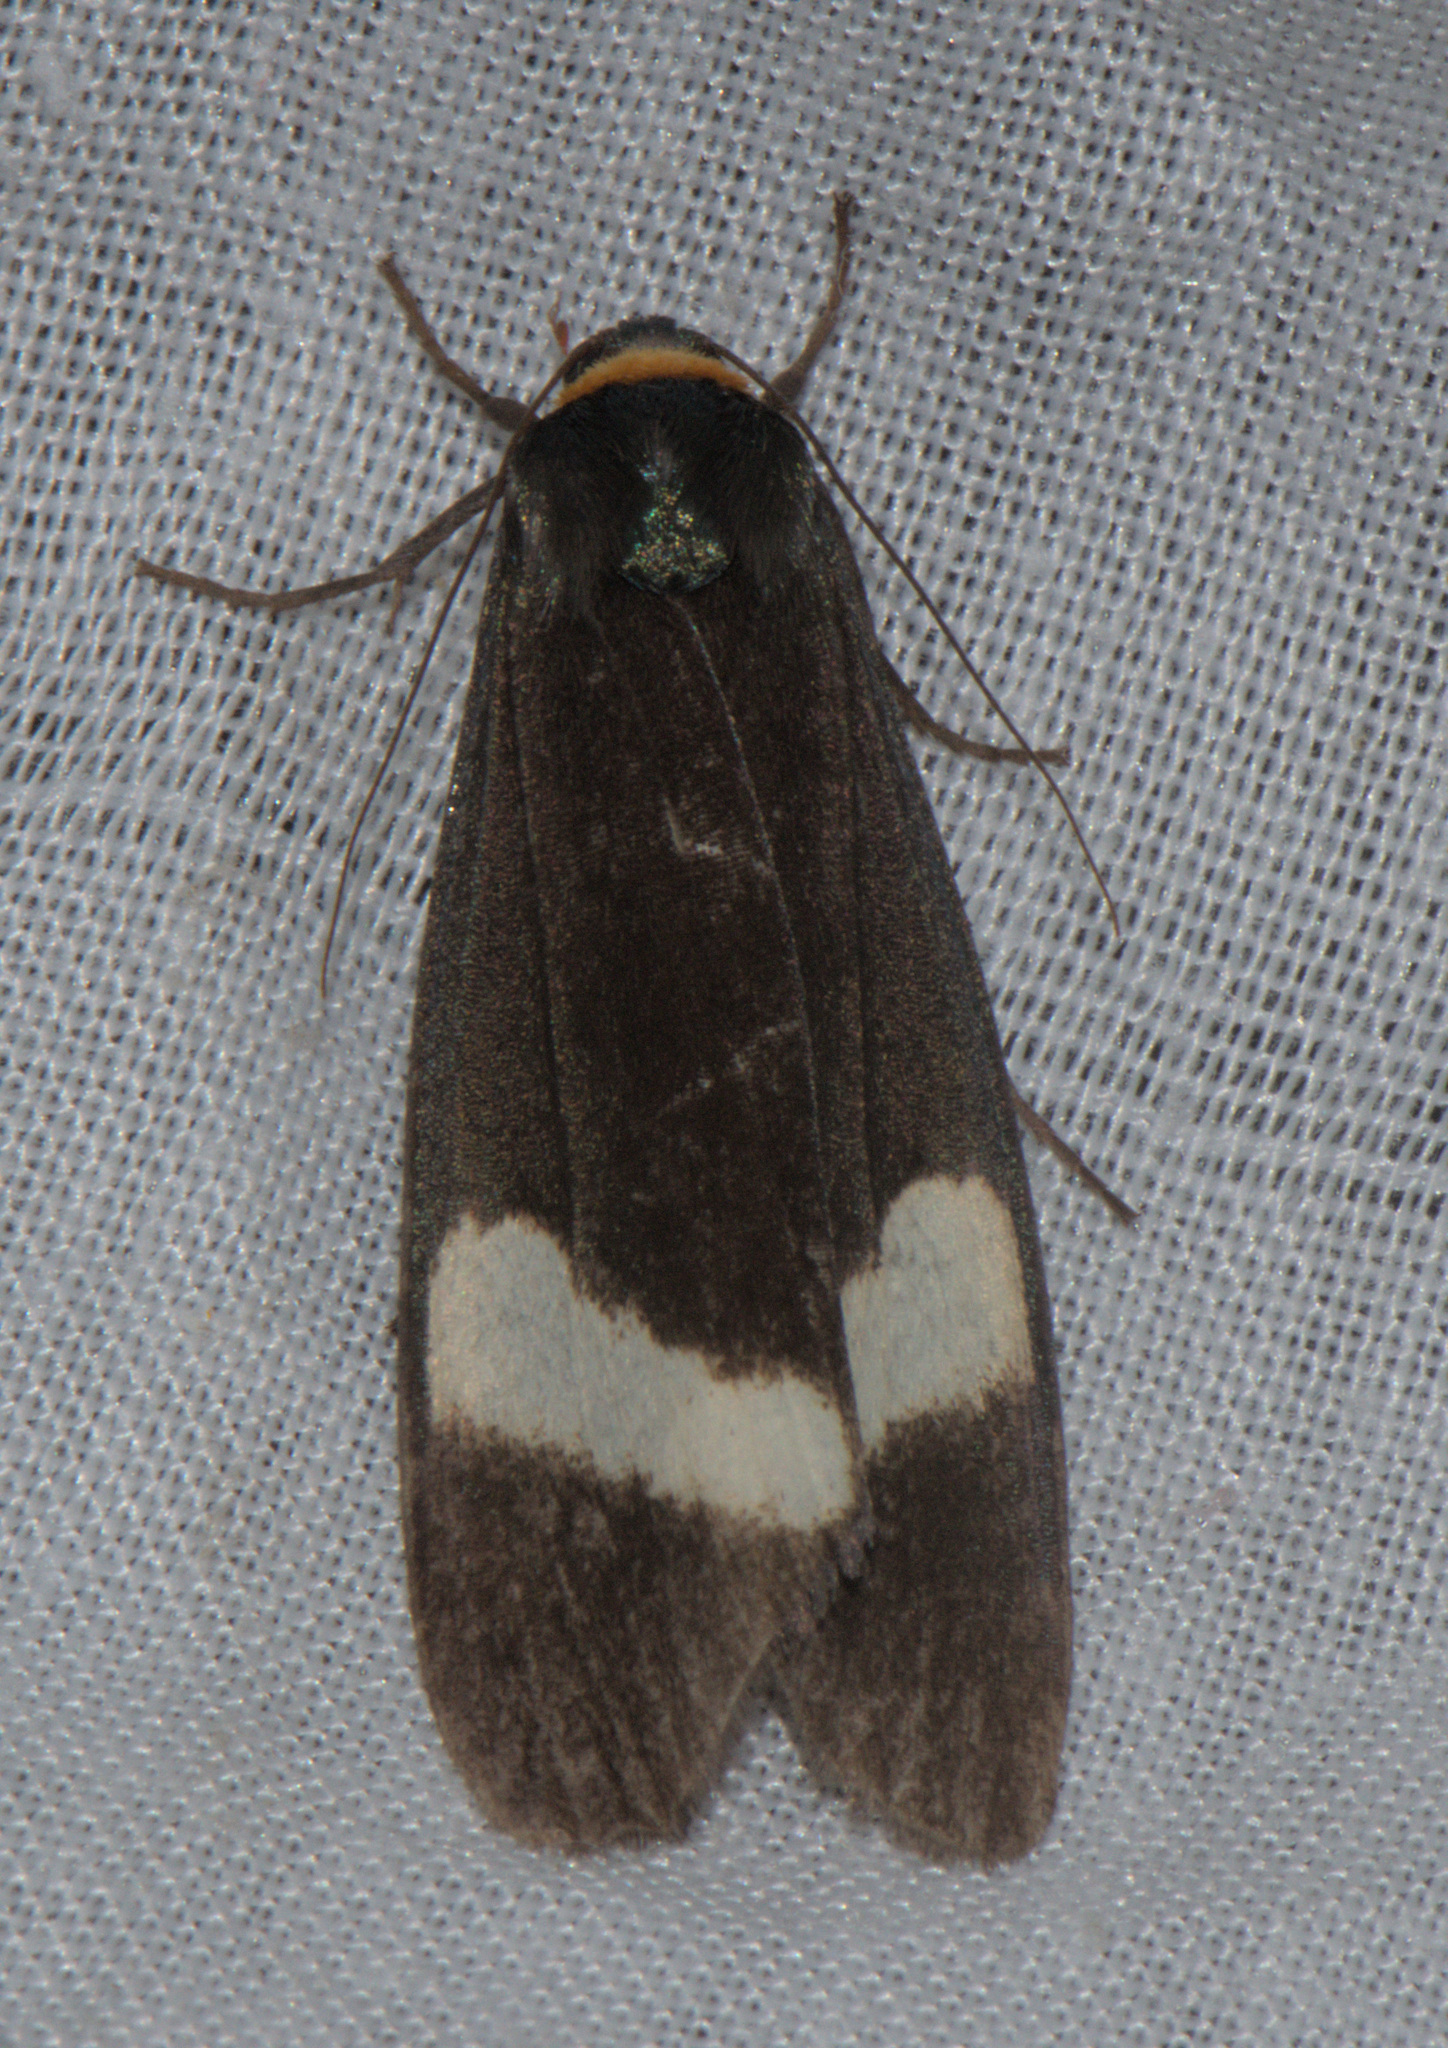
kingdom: Animalia
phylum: Arthropoda
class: Insecta
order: Lepidoptera
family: Erebidae
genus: Macrobrochis
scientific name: Macrobrochis albifascia
